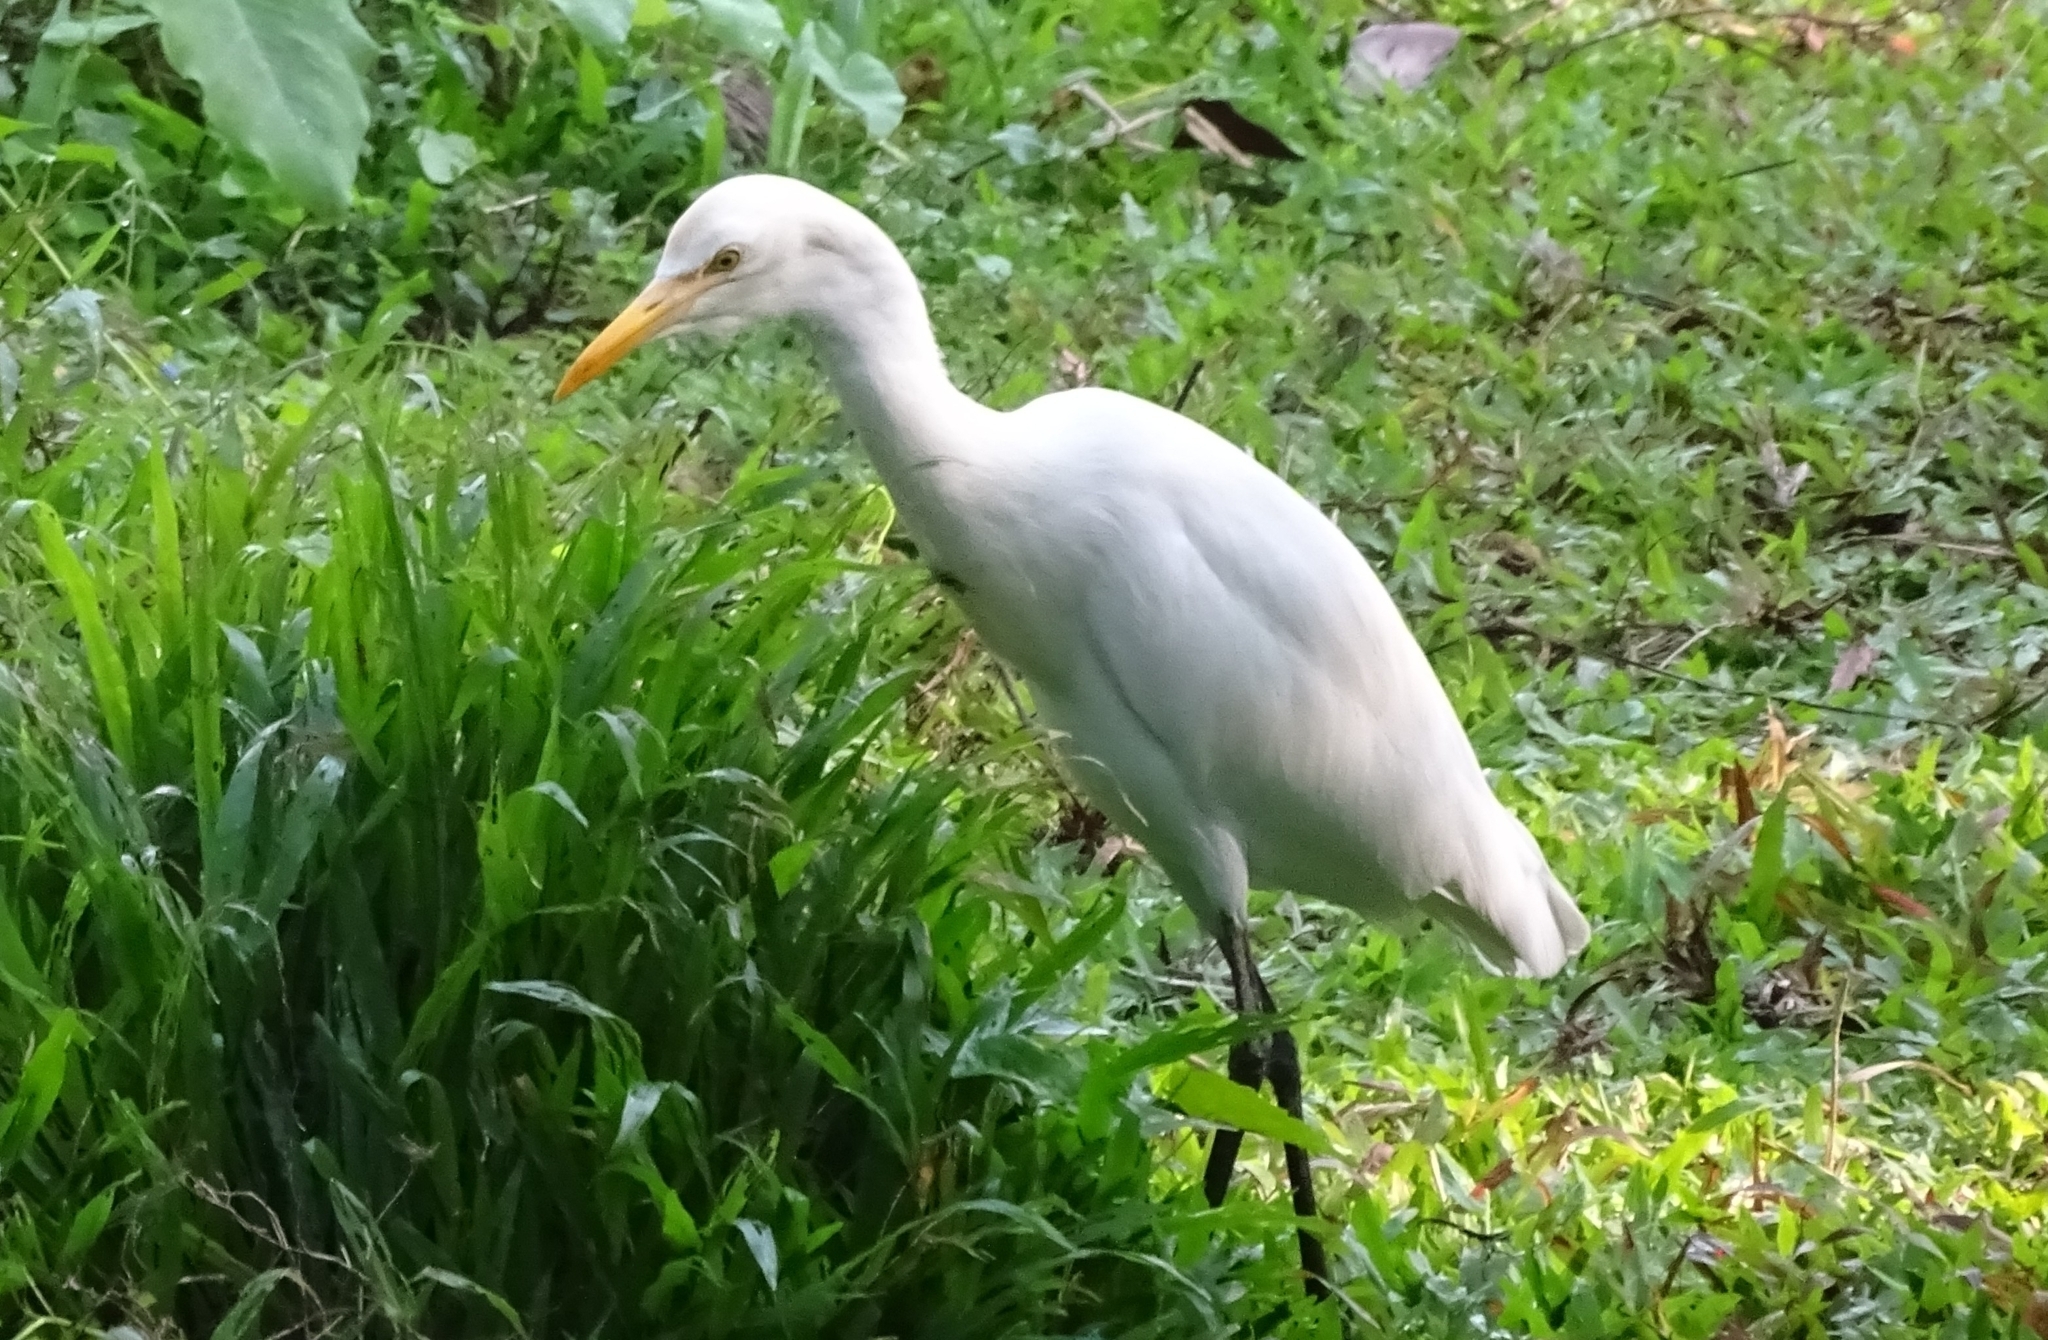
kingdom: Animalia
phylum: Chordata
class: Aves
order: Pelecaniformes
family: Ardeidae
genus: Bubulcus
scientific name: Bubulcus coromandus
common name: Eastern cattle egret
